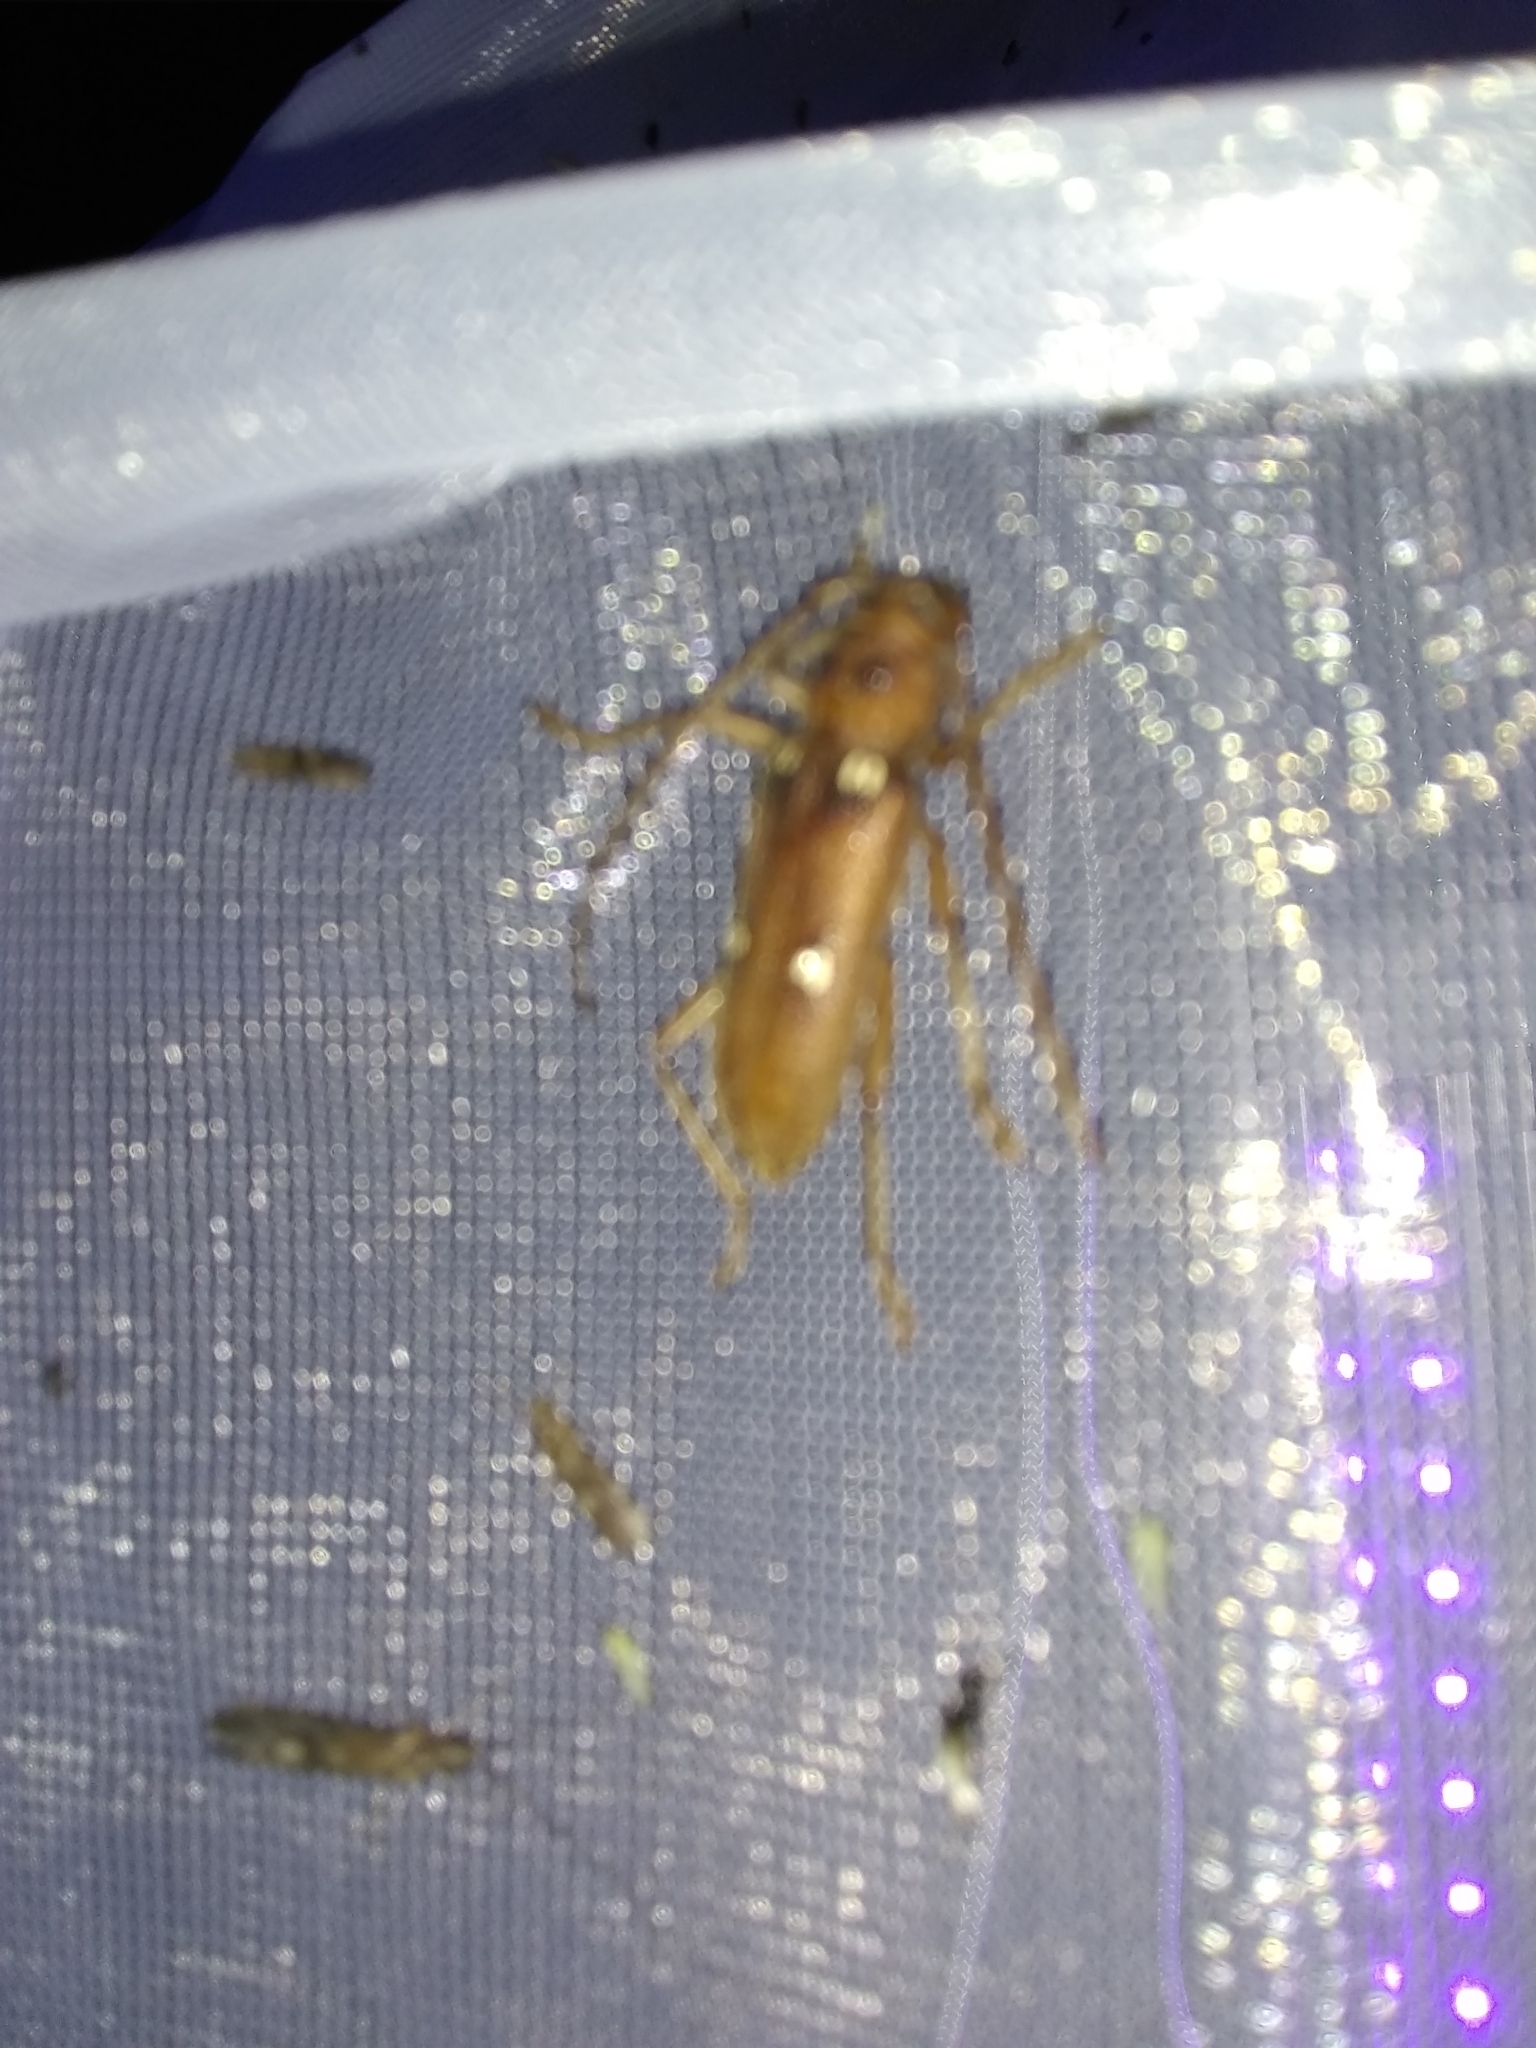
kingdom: Animalia
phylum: Arthropoda
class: Insecta
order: Coleoptera
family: Cerambycidae
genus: Eburia
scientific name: Eburia haldemani
